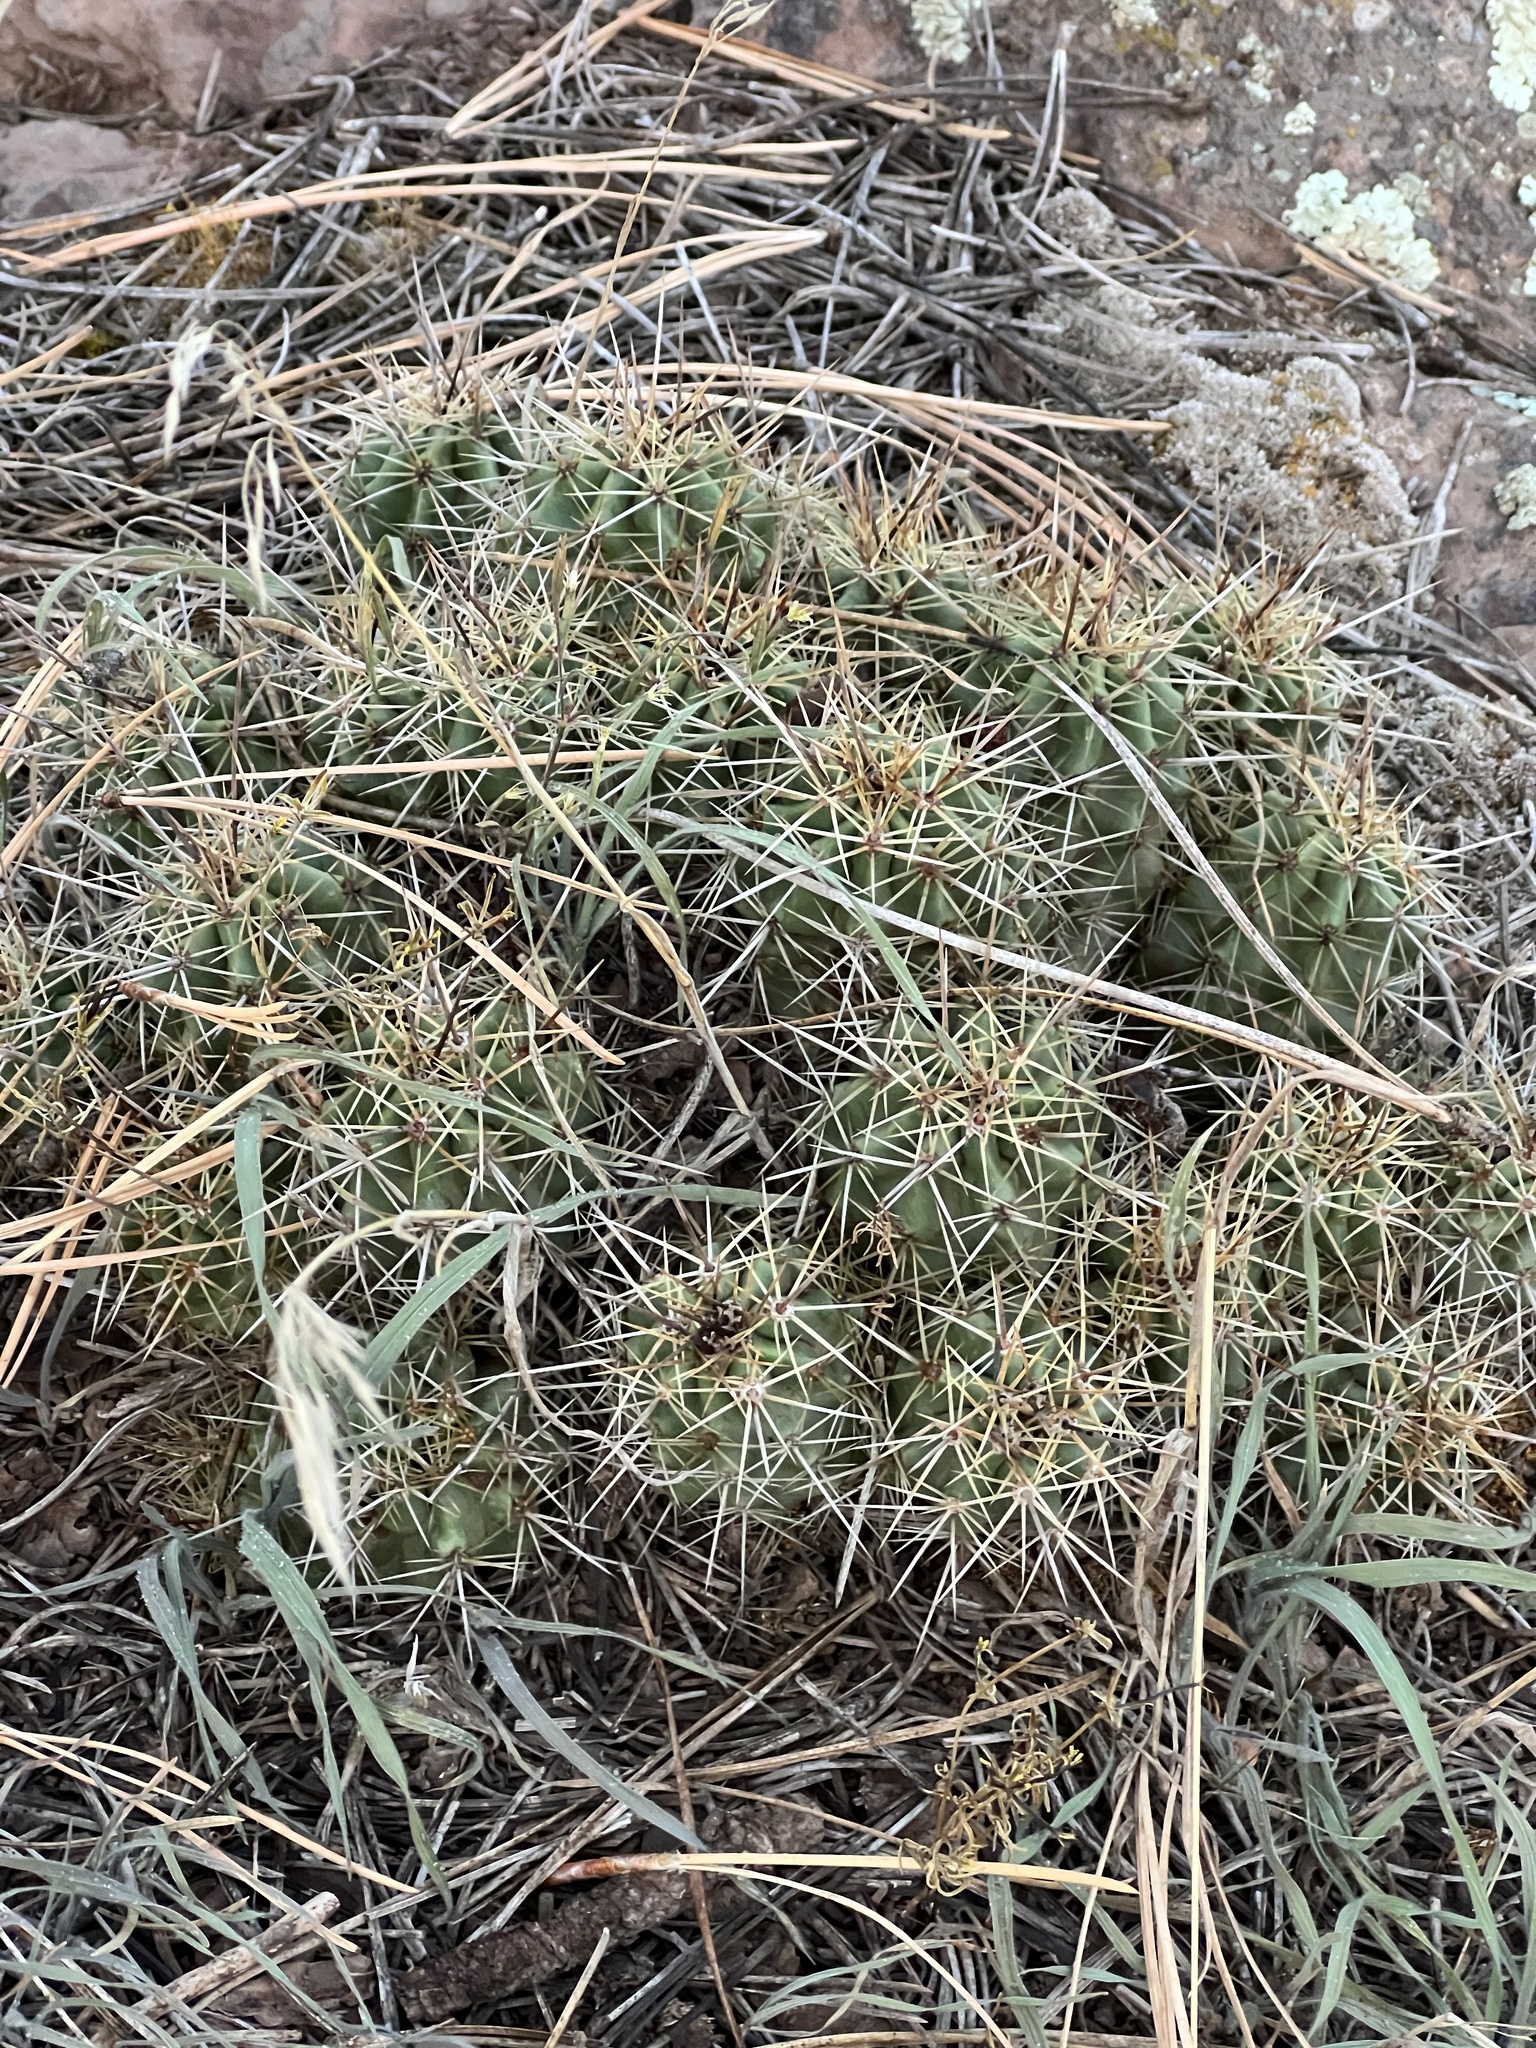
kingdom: Plantae
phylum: Tracheophyta
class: Magnoliopsida
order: Caryophyllales
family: Cactaceae
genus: Echinocereus
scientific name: Echinocereus bakeri
